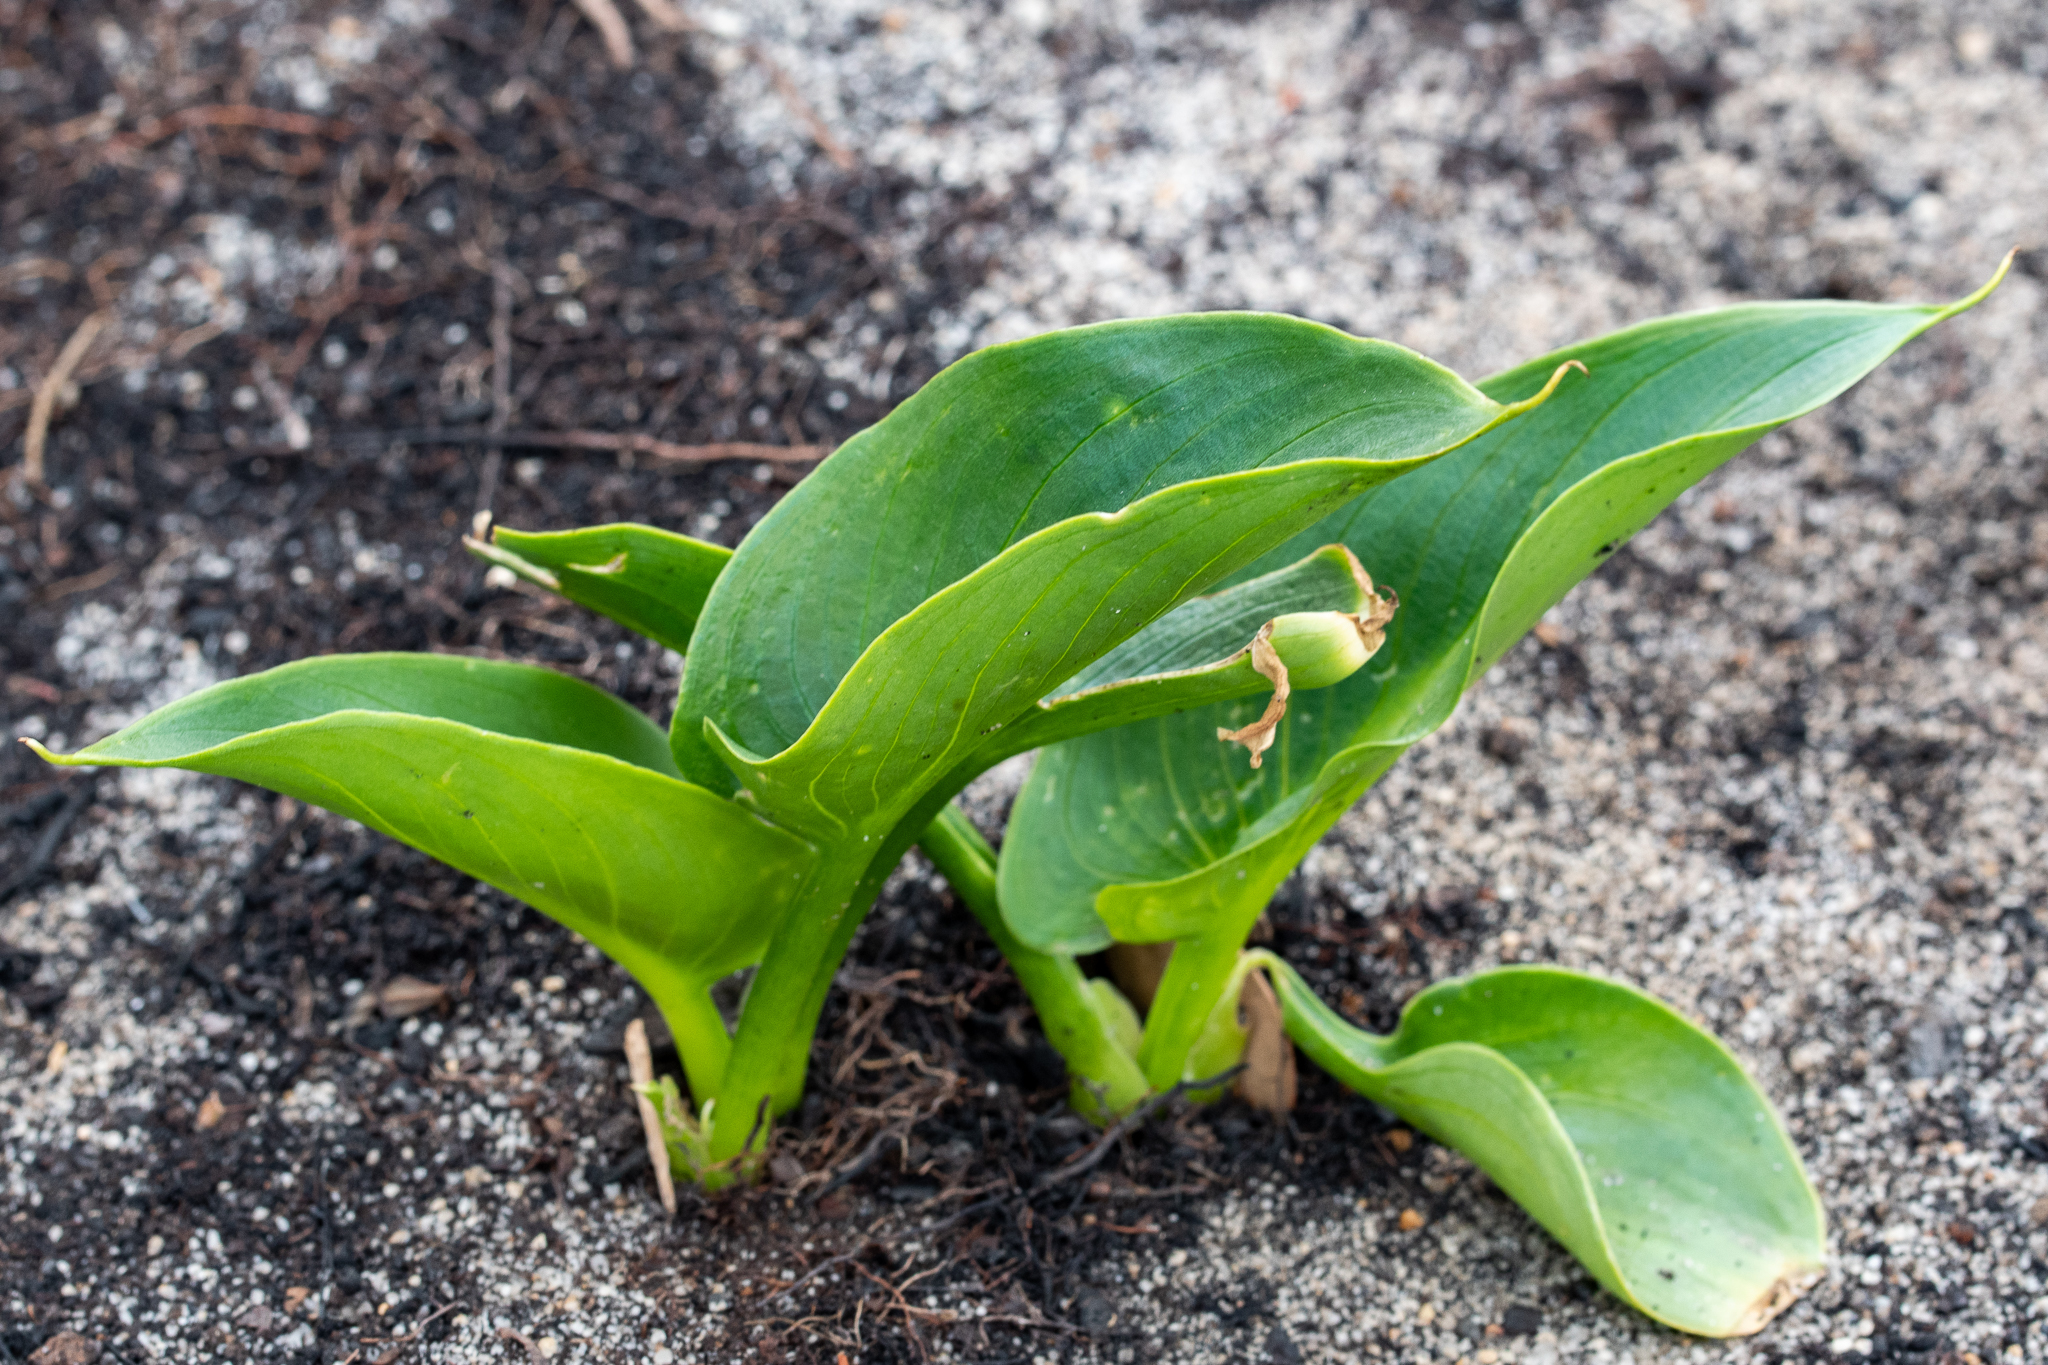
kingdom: Plantae
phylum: Tracheophyta
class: Liliopsida
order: Alismatales
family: Araceae
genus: Zantedeschia
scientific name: Zantedeschia aethiopica
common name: Altar-lily
